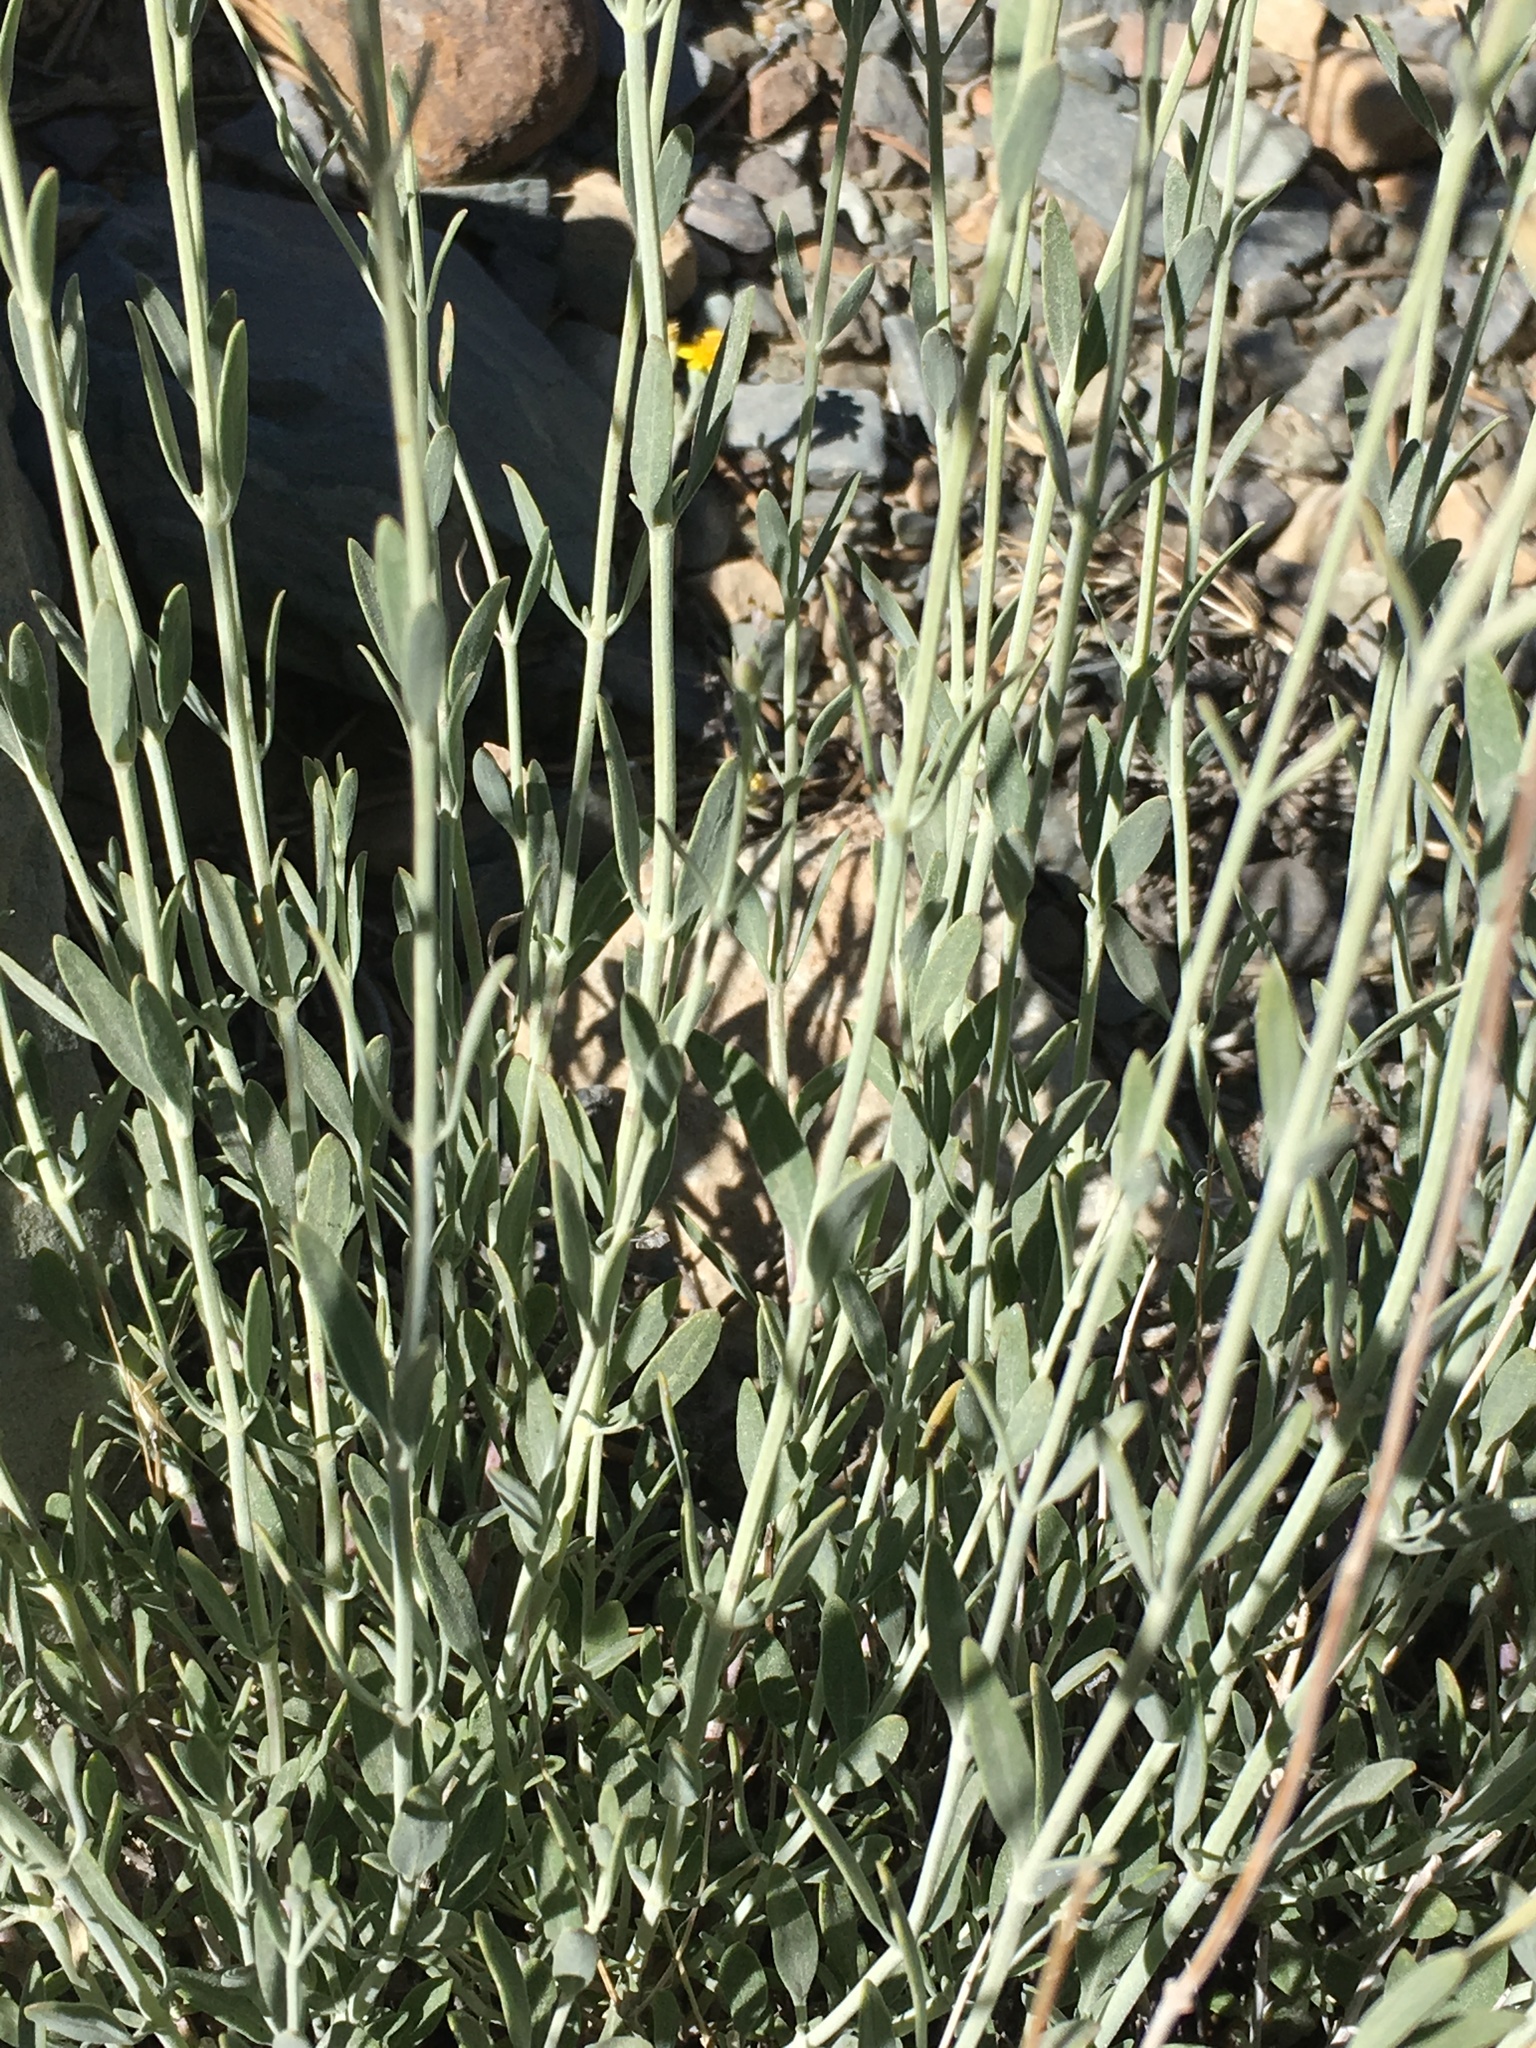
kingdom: Plantae
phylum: Tracheophyta
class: Magnoliopsida
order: Lamiales
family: Lamiaceae
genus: Monardella
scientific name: Monardella linoides
